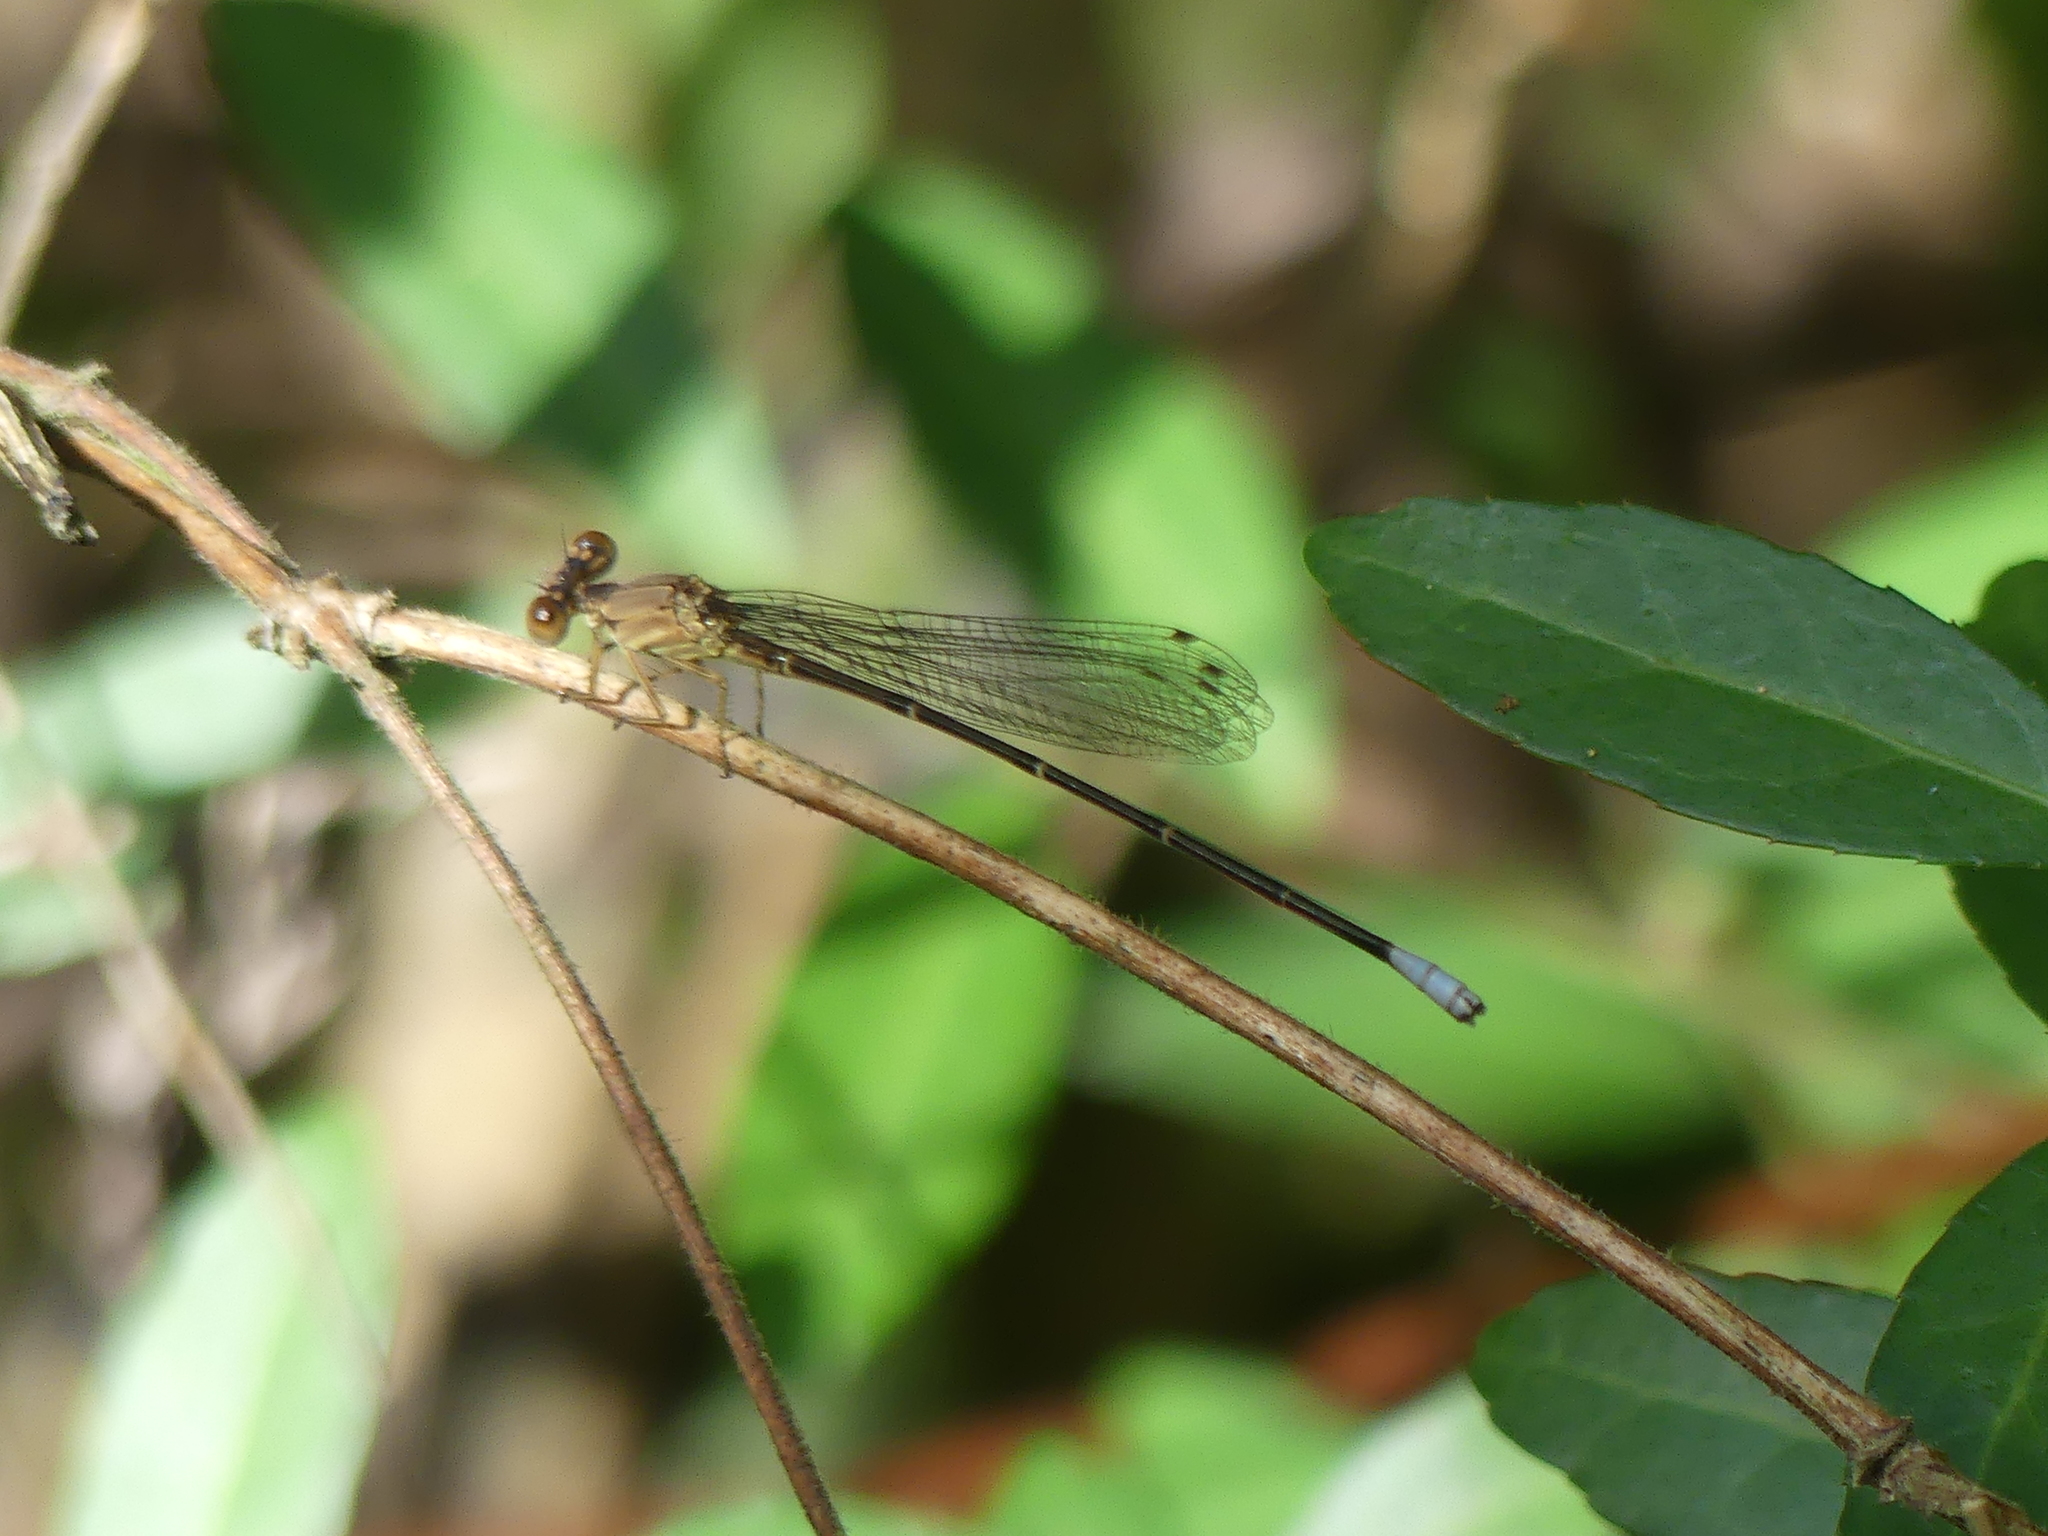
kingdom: Animalia
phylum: Arthropoda
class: Insecta
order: Odonata
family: Coenagrionidae
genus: Argia
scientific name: Argia apicalis
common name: Blue-fronted dancer
